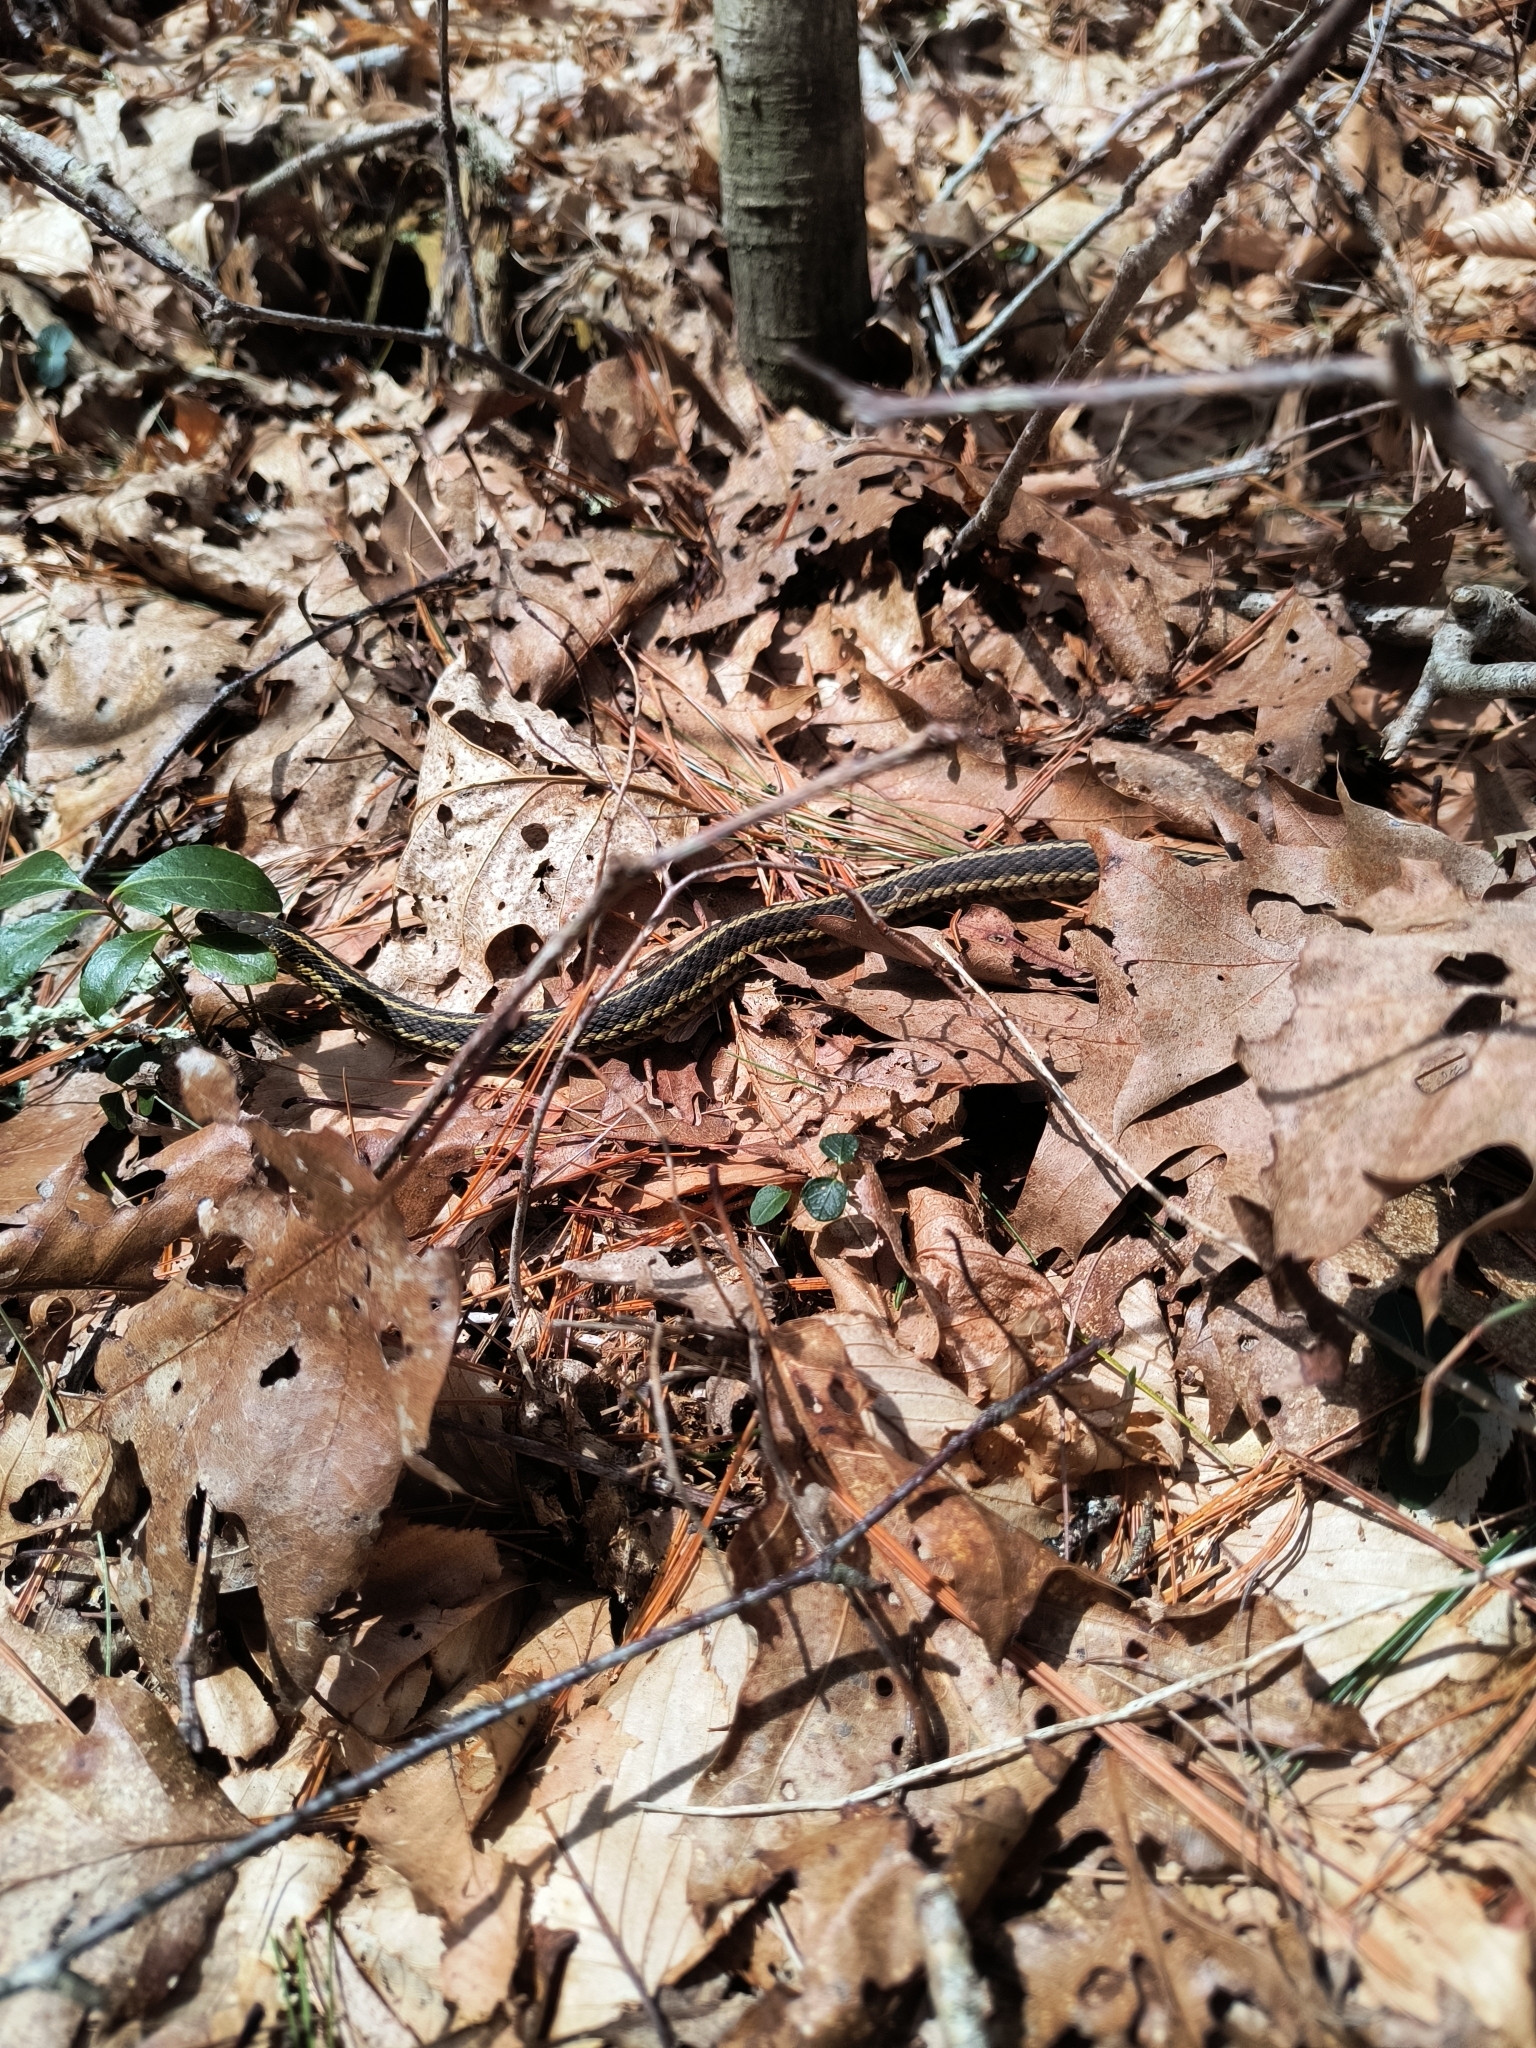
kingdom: Animalia
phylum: Chordata
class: Squamata
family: Colubridae
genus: Thamnophis
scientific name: Thamnophis sirtalis
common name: Common garter snake
